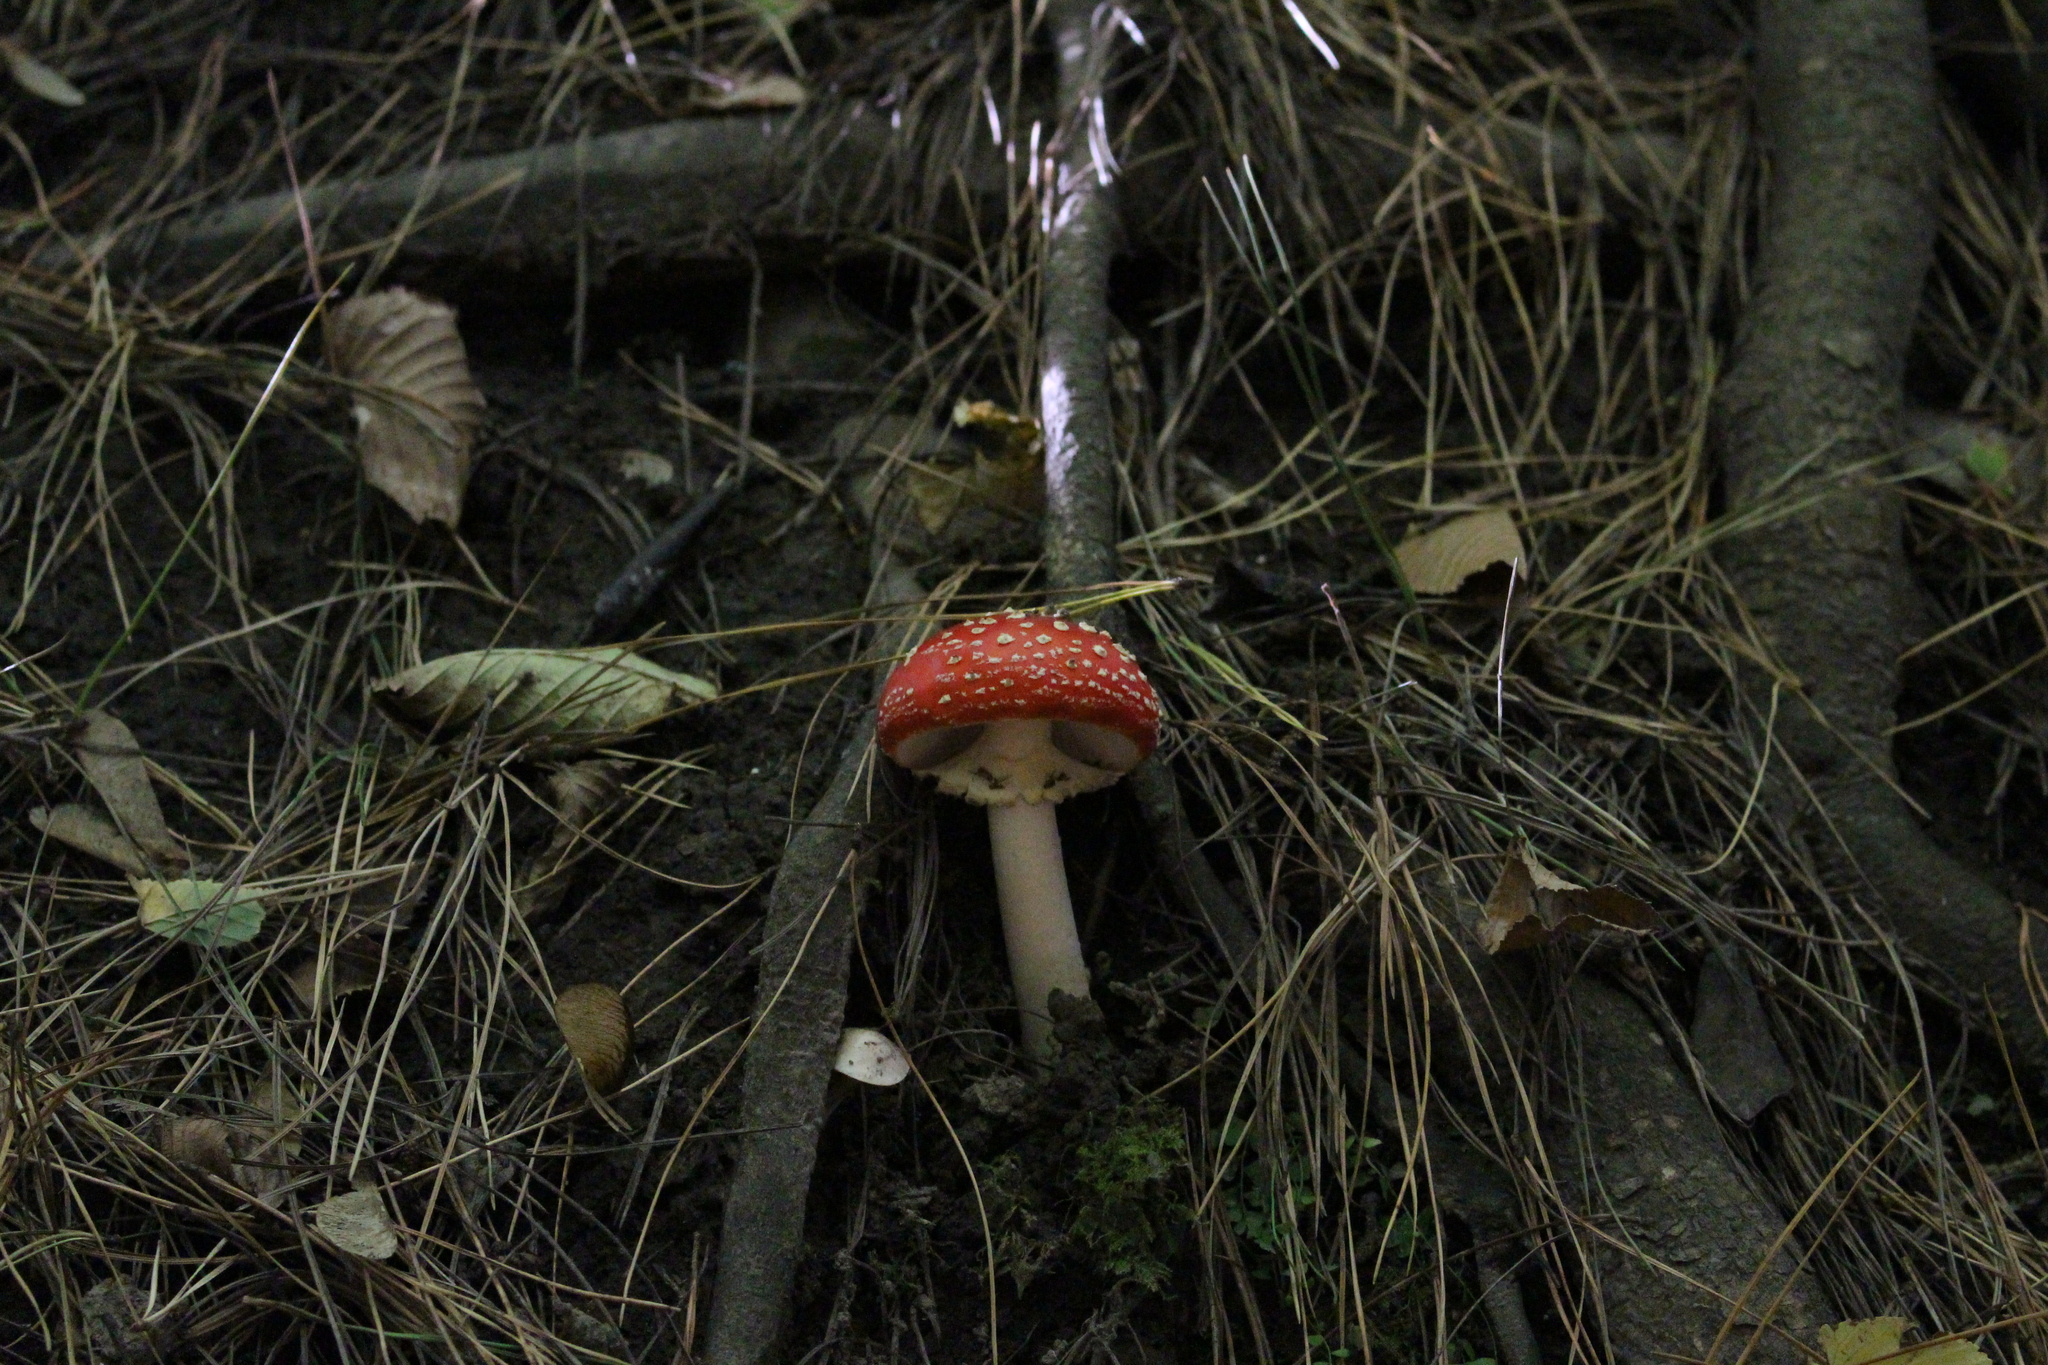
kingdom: Fungi
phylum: Basidiomycota
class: Agaricomycetes
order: Agaricales
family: Amanitaceae
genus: Amanita
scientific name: Amanita muscaria
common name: Fly agaric
